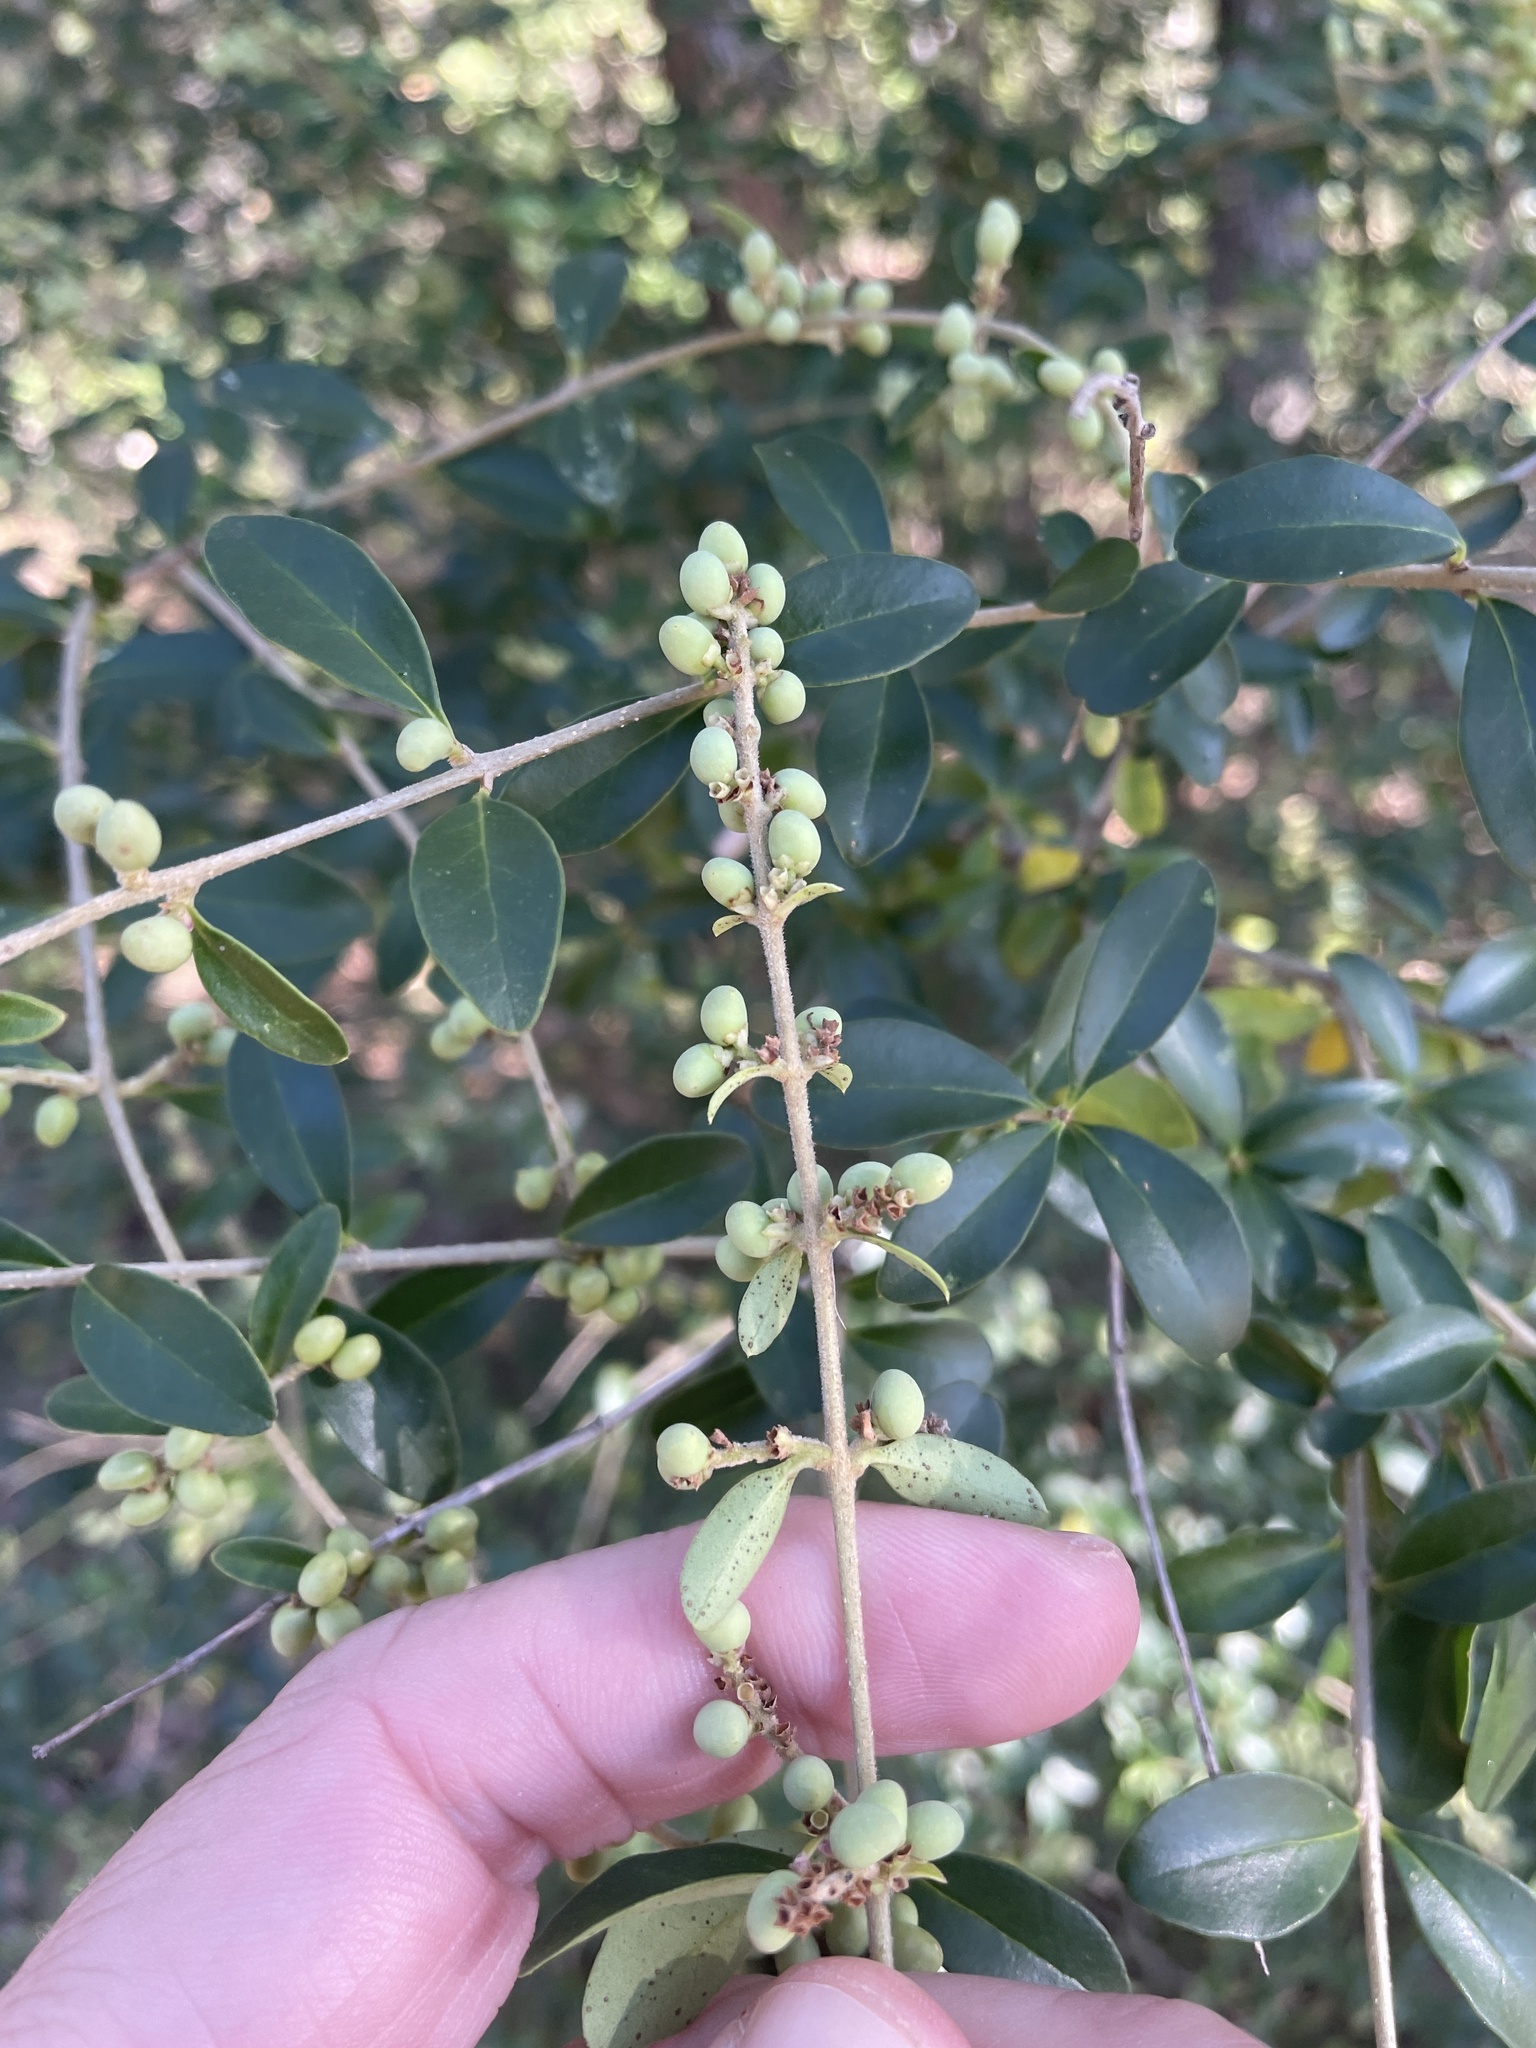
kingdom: Plantae
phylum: Tracheophyta
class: Magnoliopsida
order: Lamiales
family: Oleaceae
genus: Ligustrum
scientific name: Ligustrum quihoui
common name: Waxyleaf privet
